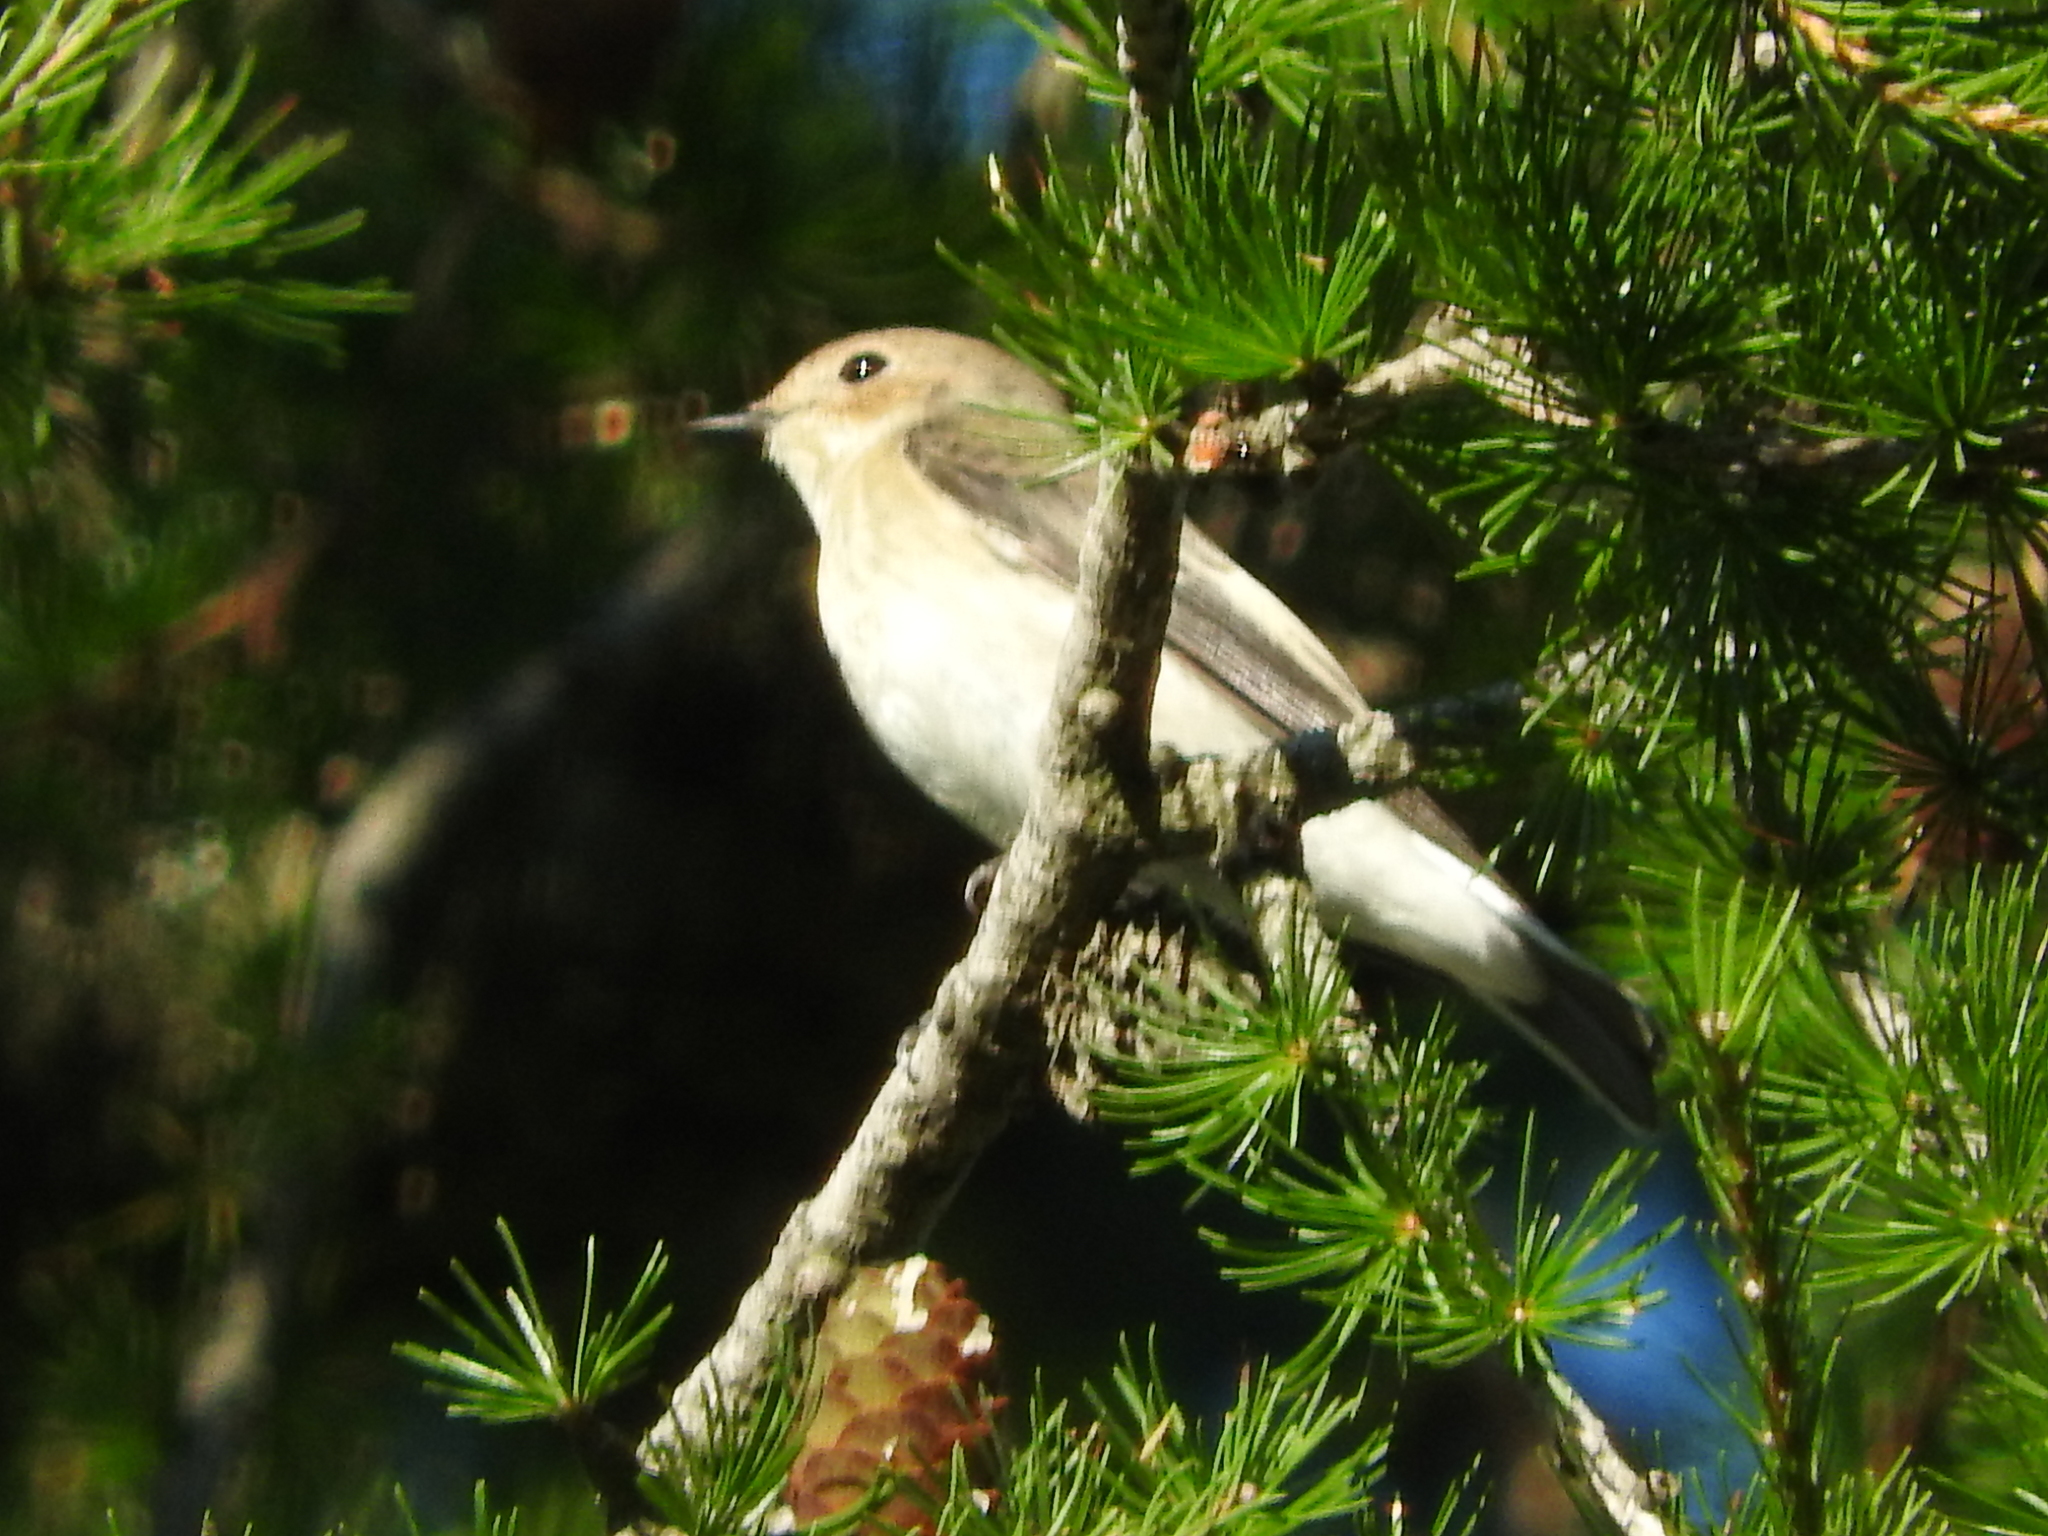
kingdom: Animalia
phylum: Chordata
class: Aves
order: Passeriformes
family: Muscicapidae
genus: Ficedula
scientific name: Ficedula hypoleuca
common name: European pied flycatcher
